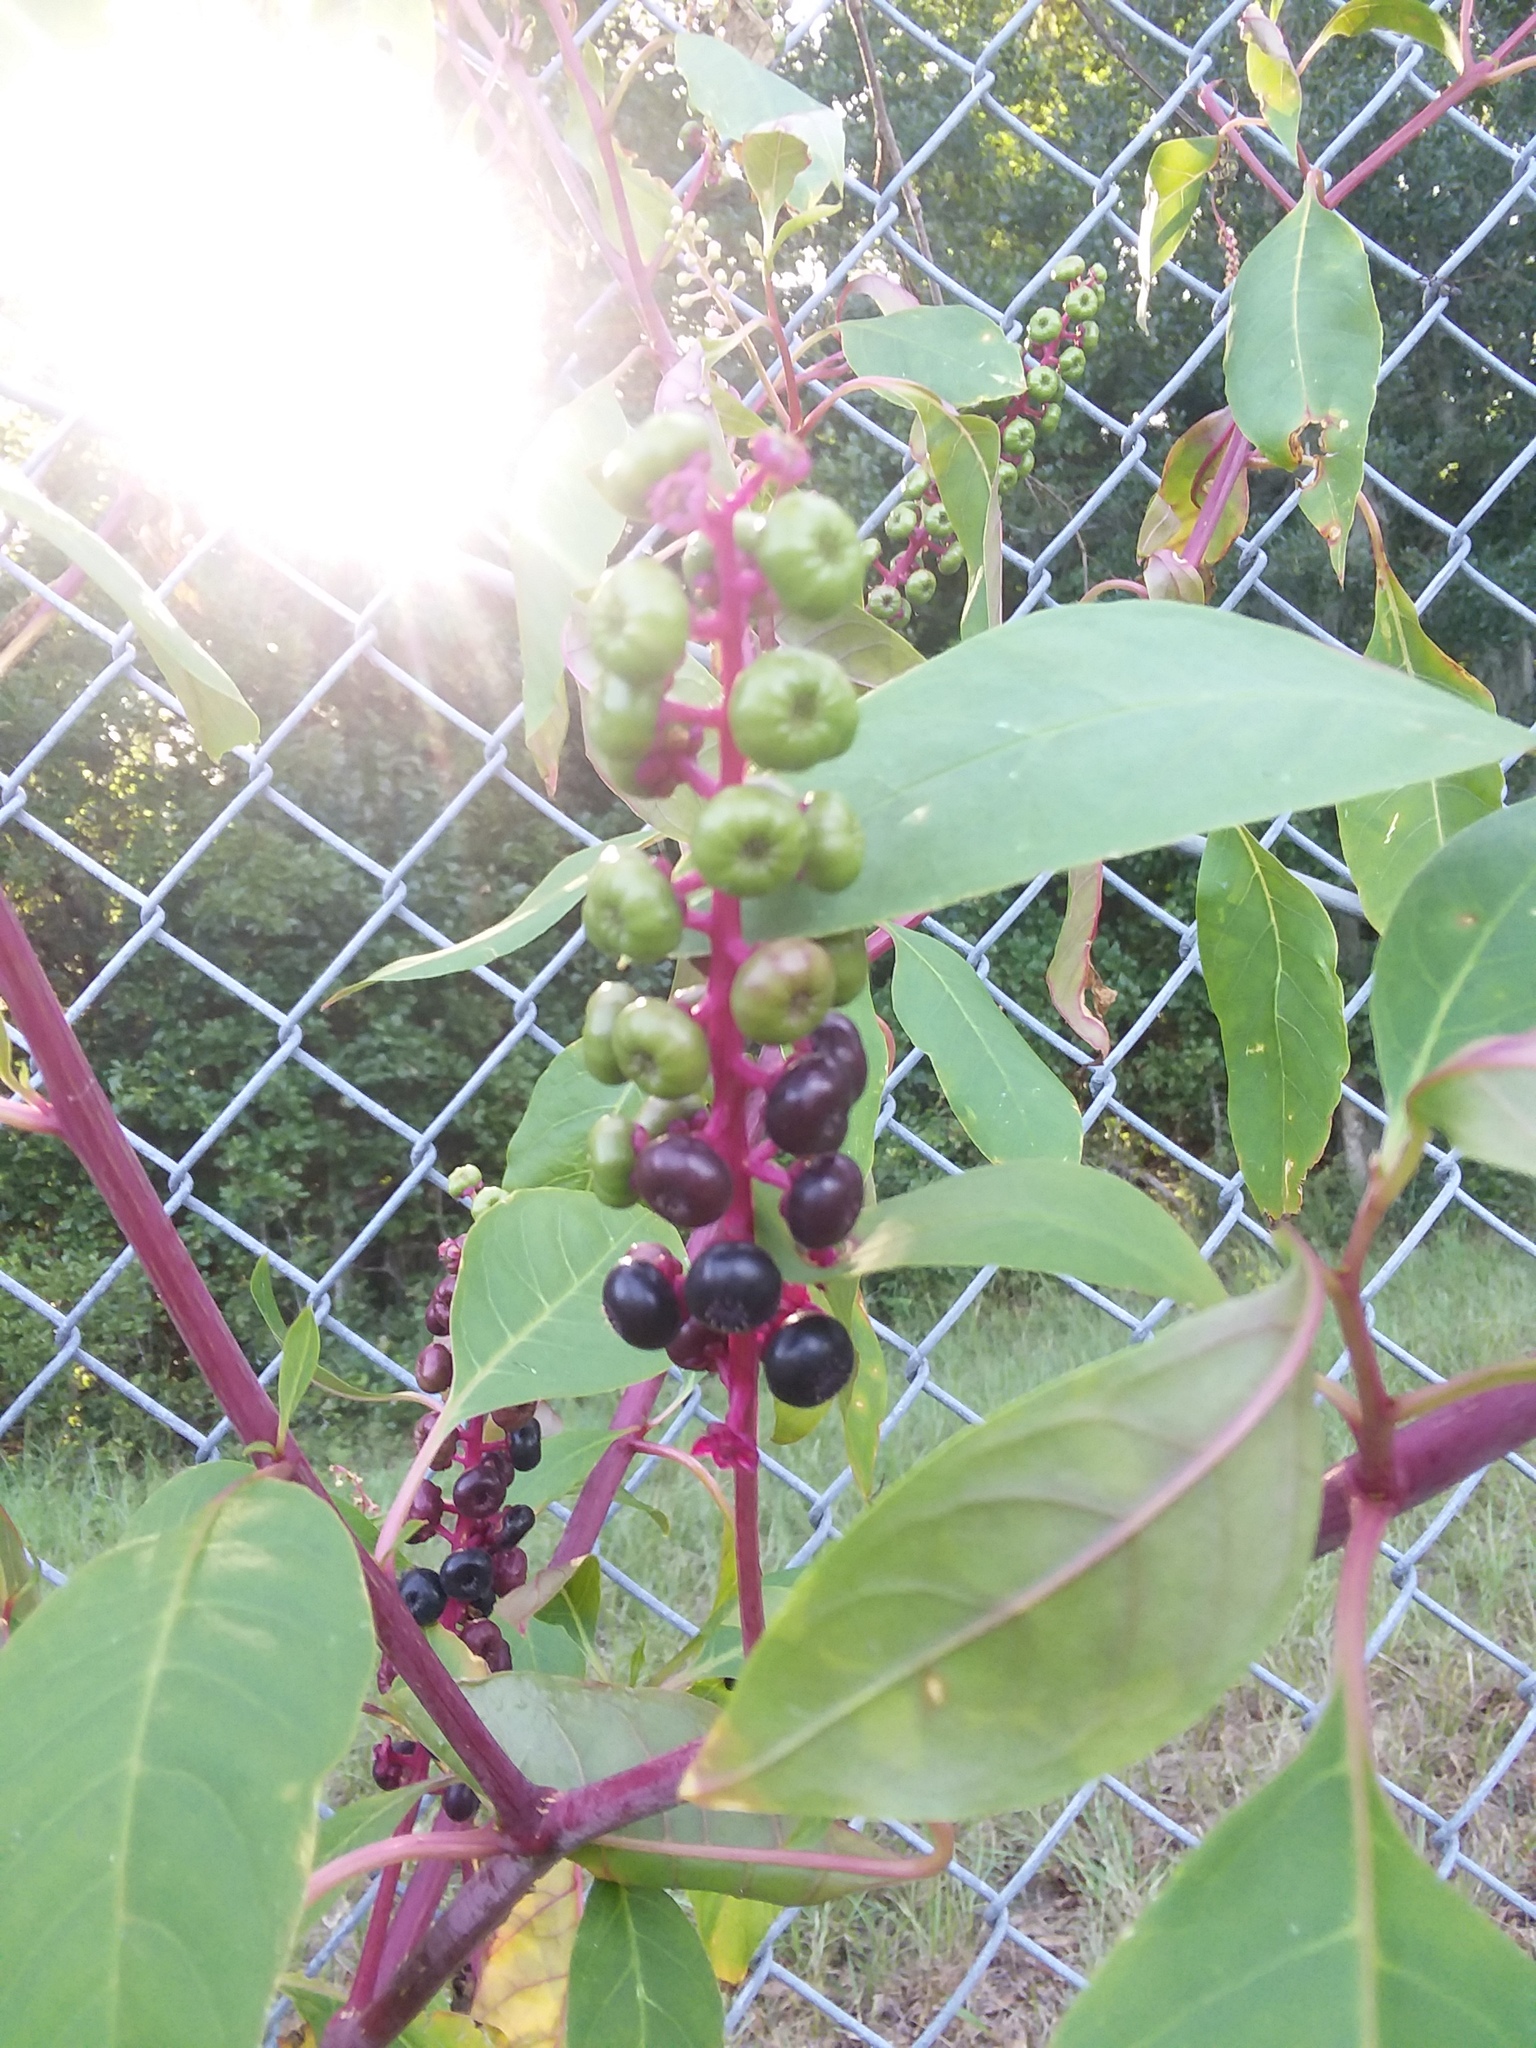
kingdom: Plantae
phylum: Tracheophyta
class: Magnoliopsida
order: Caryophyllales
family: Phytolaccaceae
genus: Phytolacca
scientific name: Phytolacca americana
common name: American pokeweed
